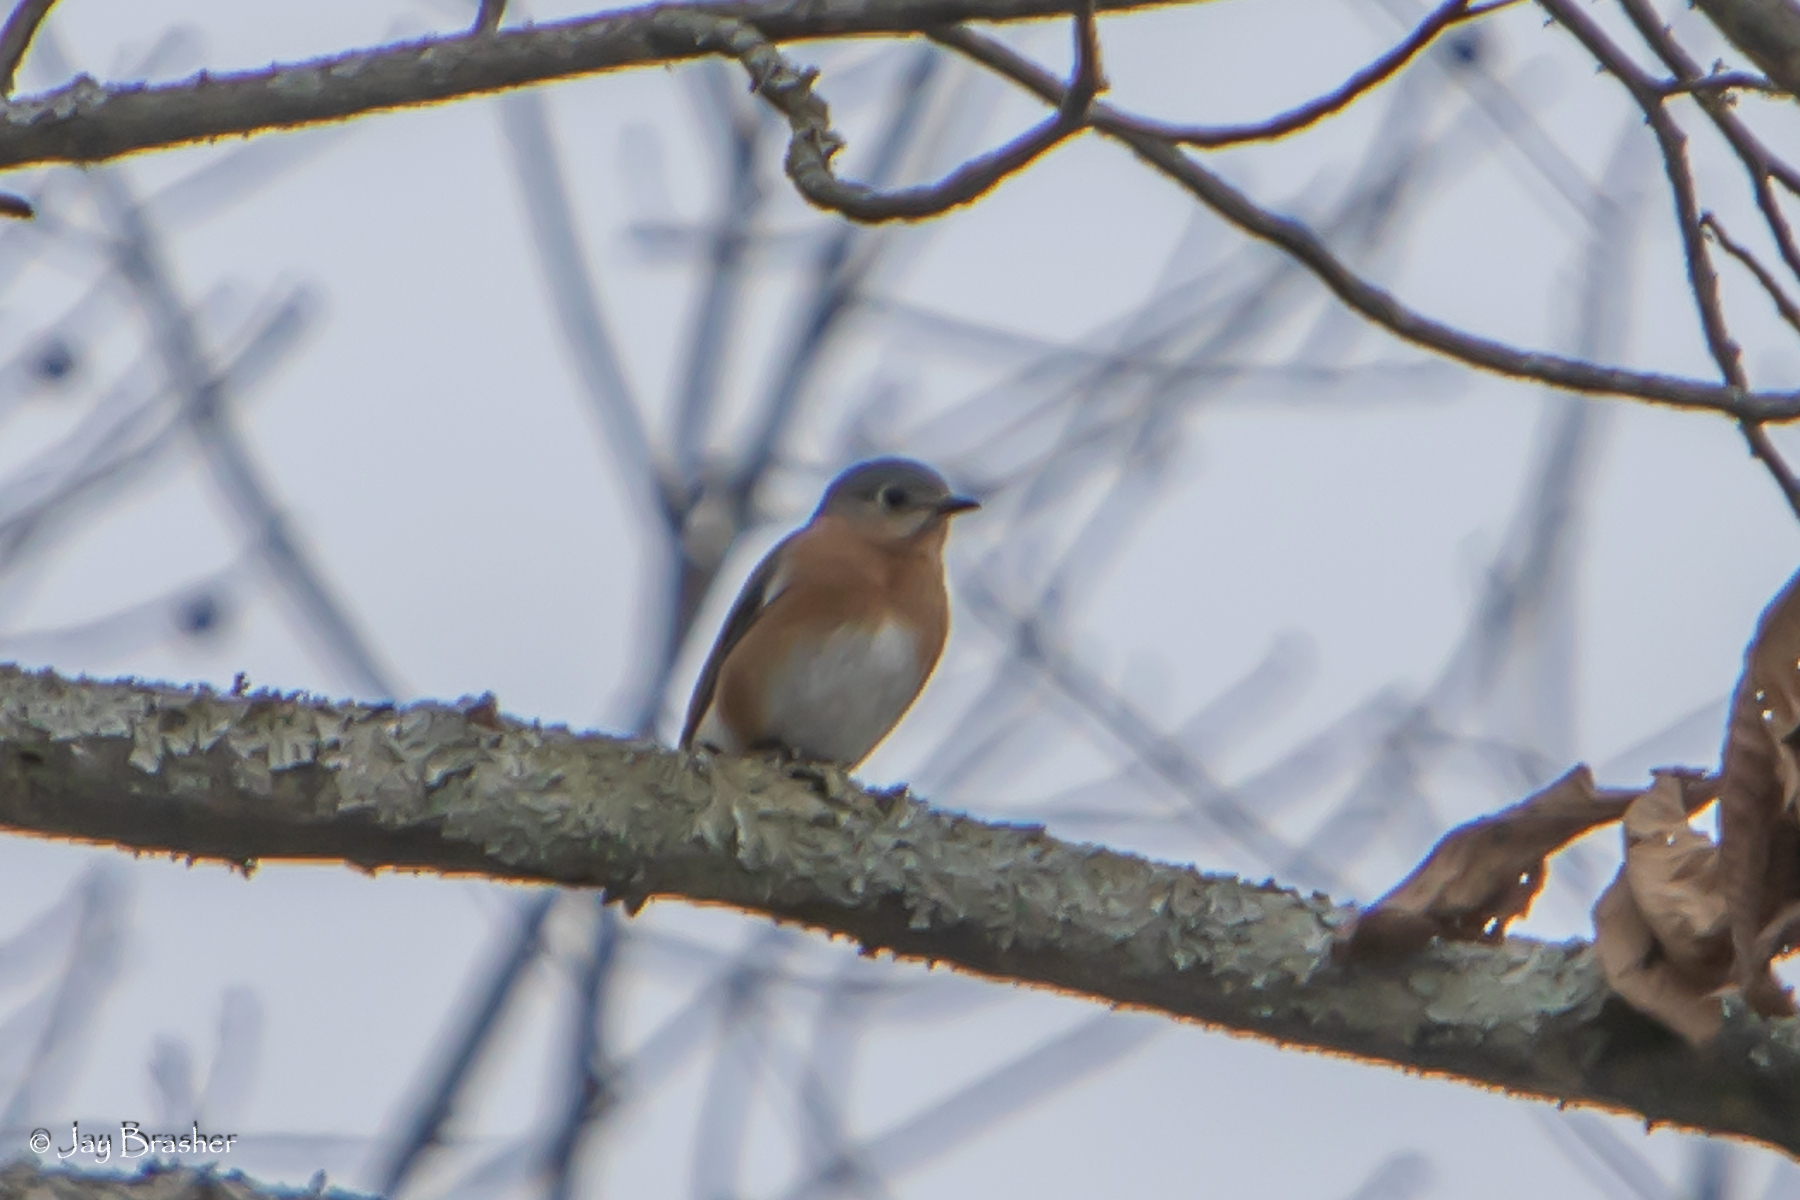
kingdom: Animalia
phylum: Chordata
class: Aves
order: Passeriformes
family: Turdidae
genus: Sialia
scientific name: Sialia sialis
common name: Eastern bluebird
